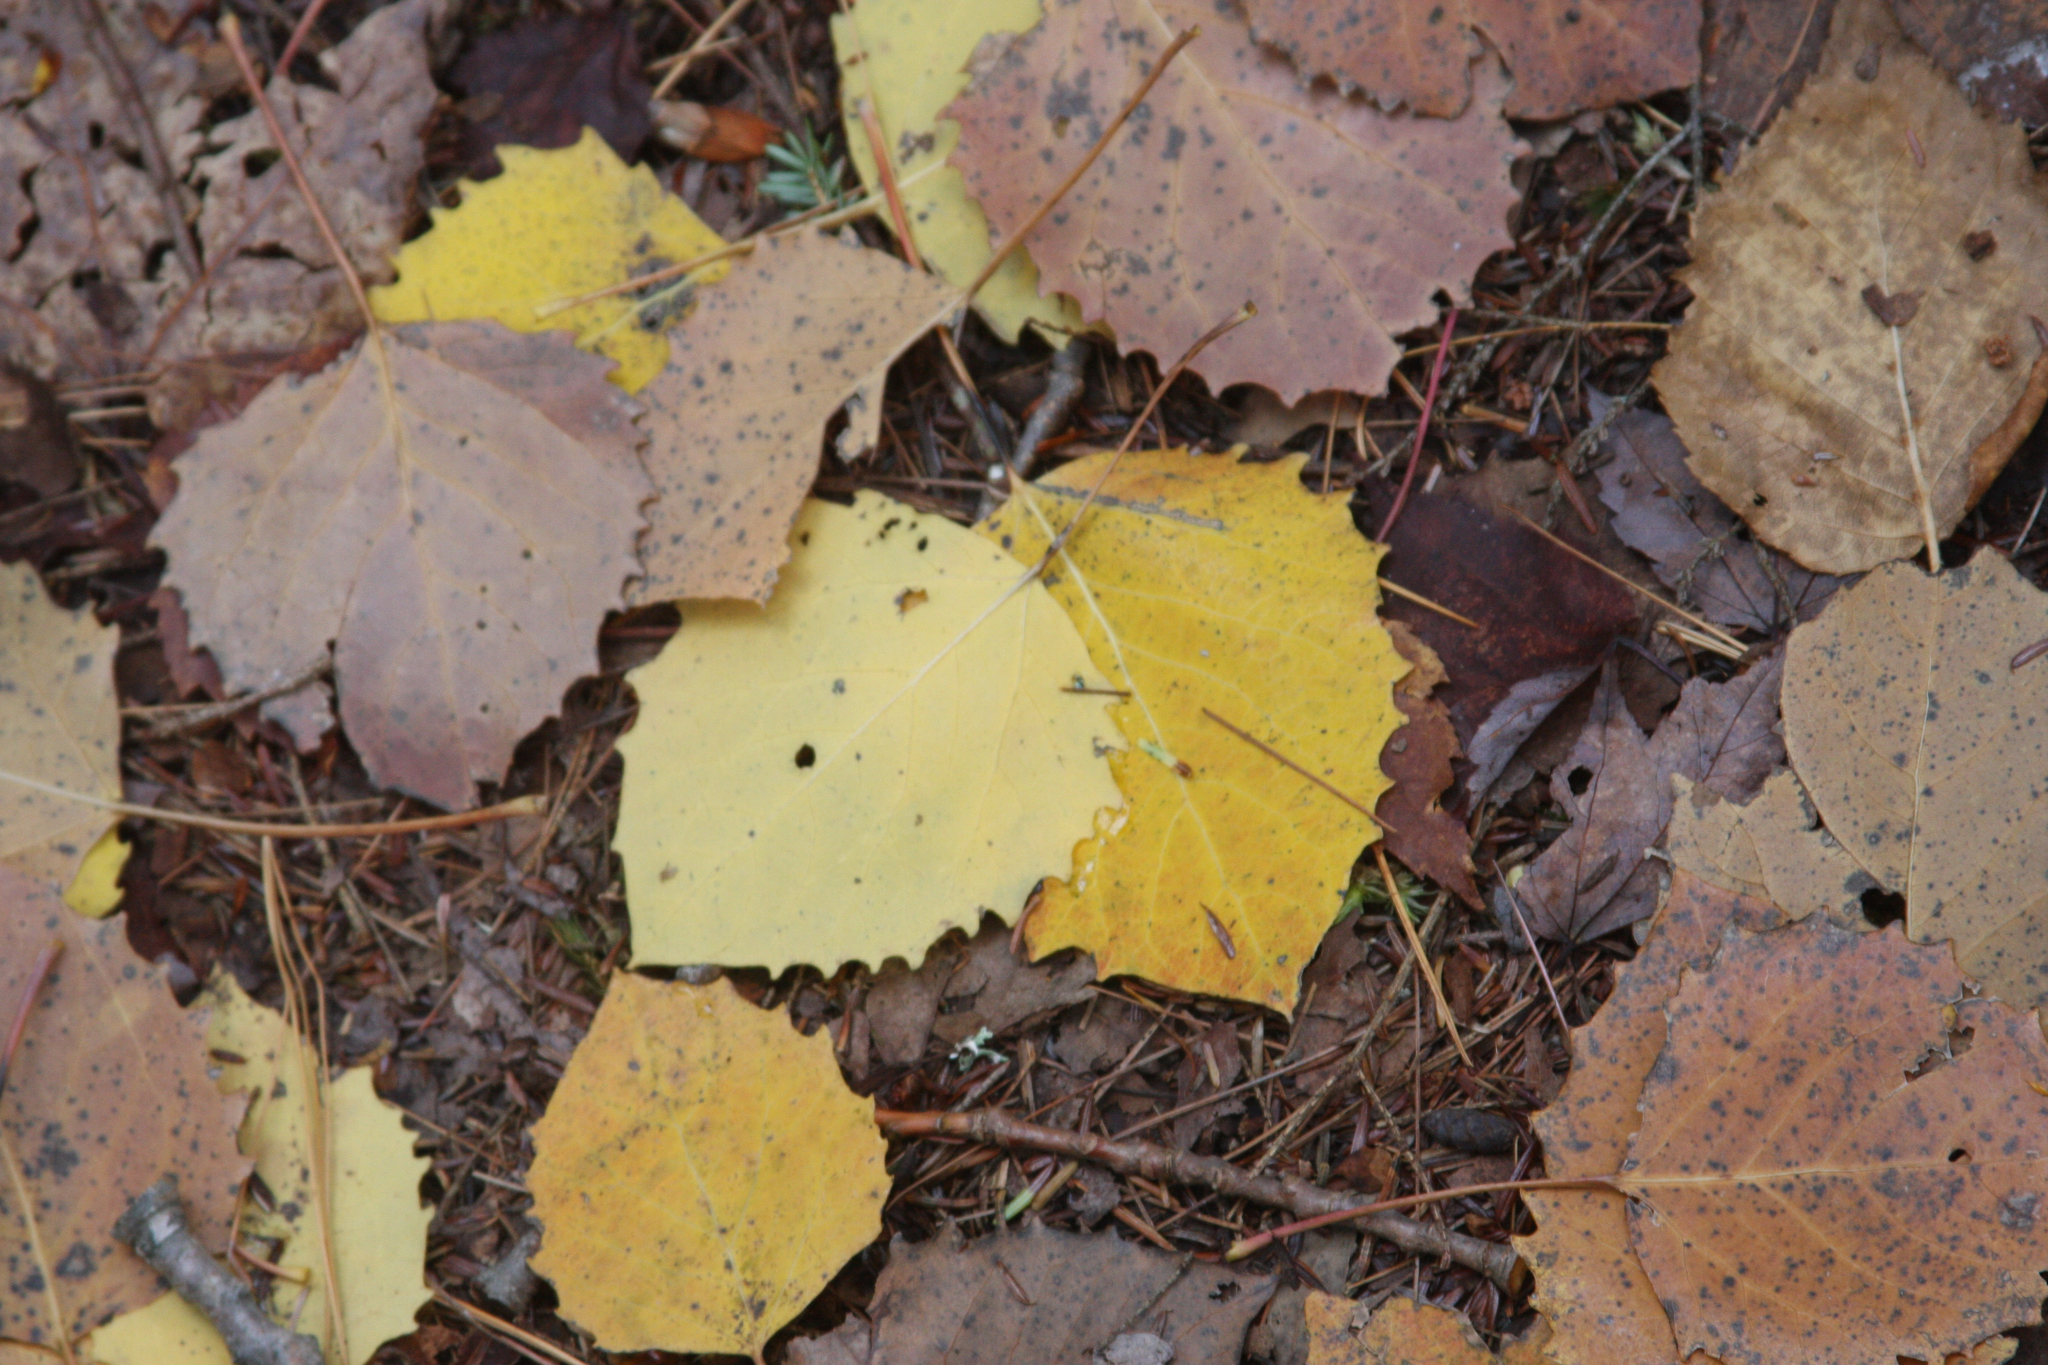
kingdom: Plantae
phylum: Tracheophyta
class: Magnoliopsida
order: Malpighiales
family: Salicaceae
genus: Populus
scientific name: Populus grandidentata
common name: Bigtooth aspen
